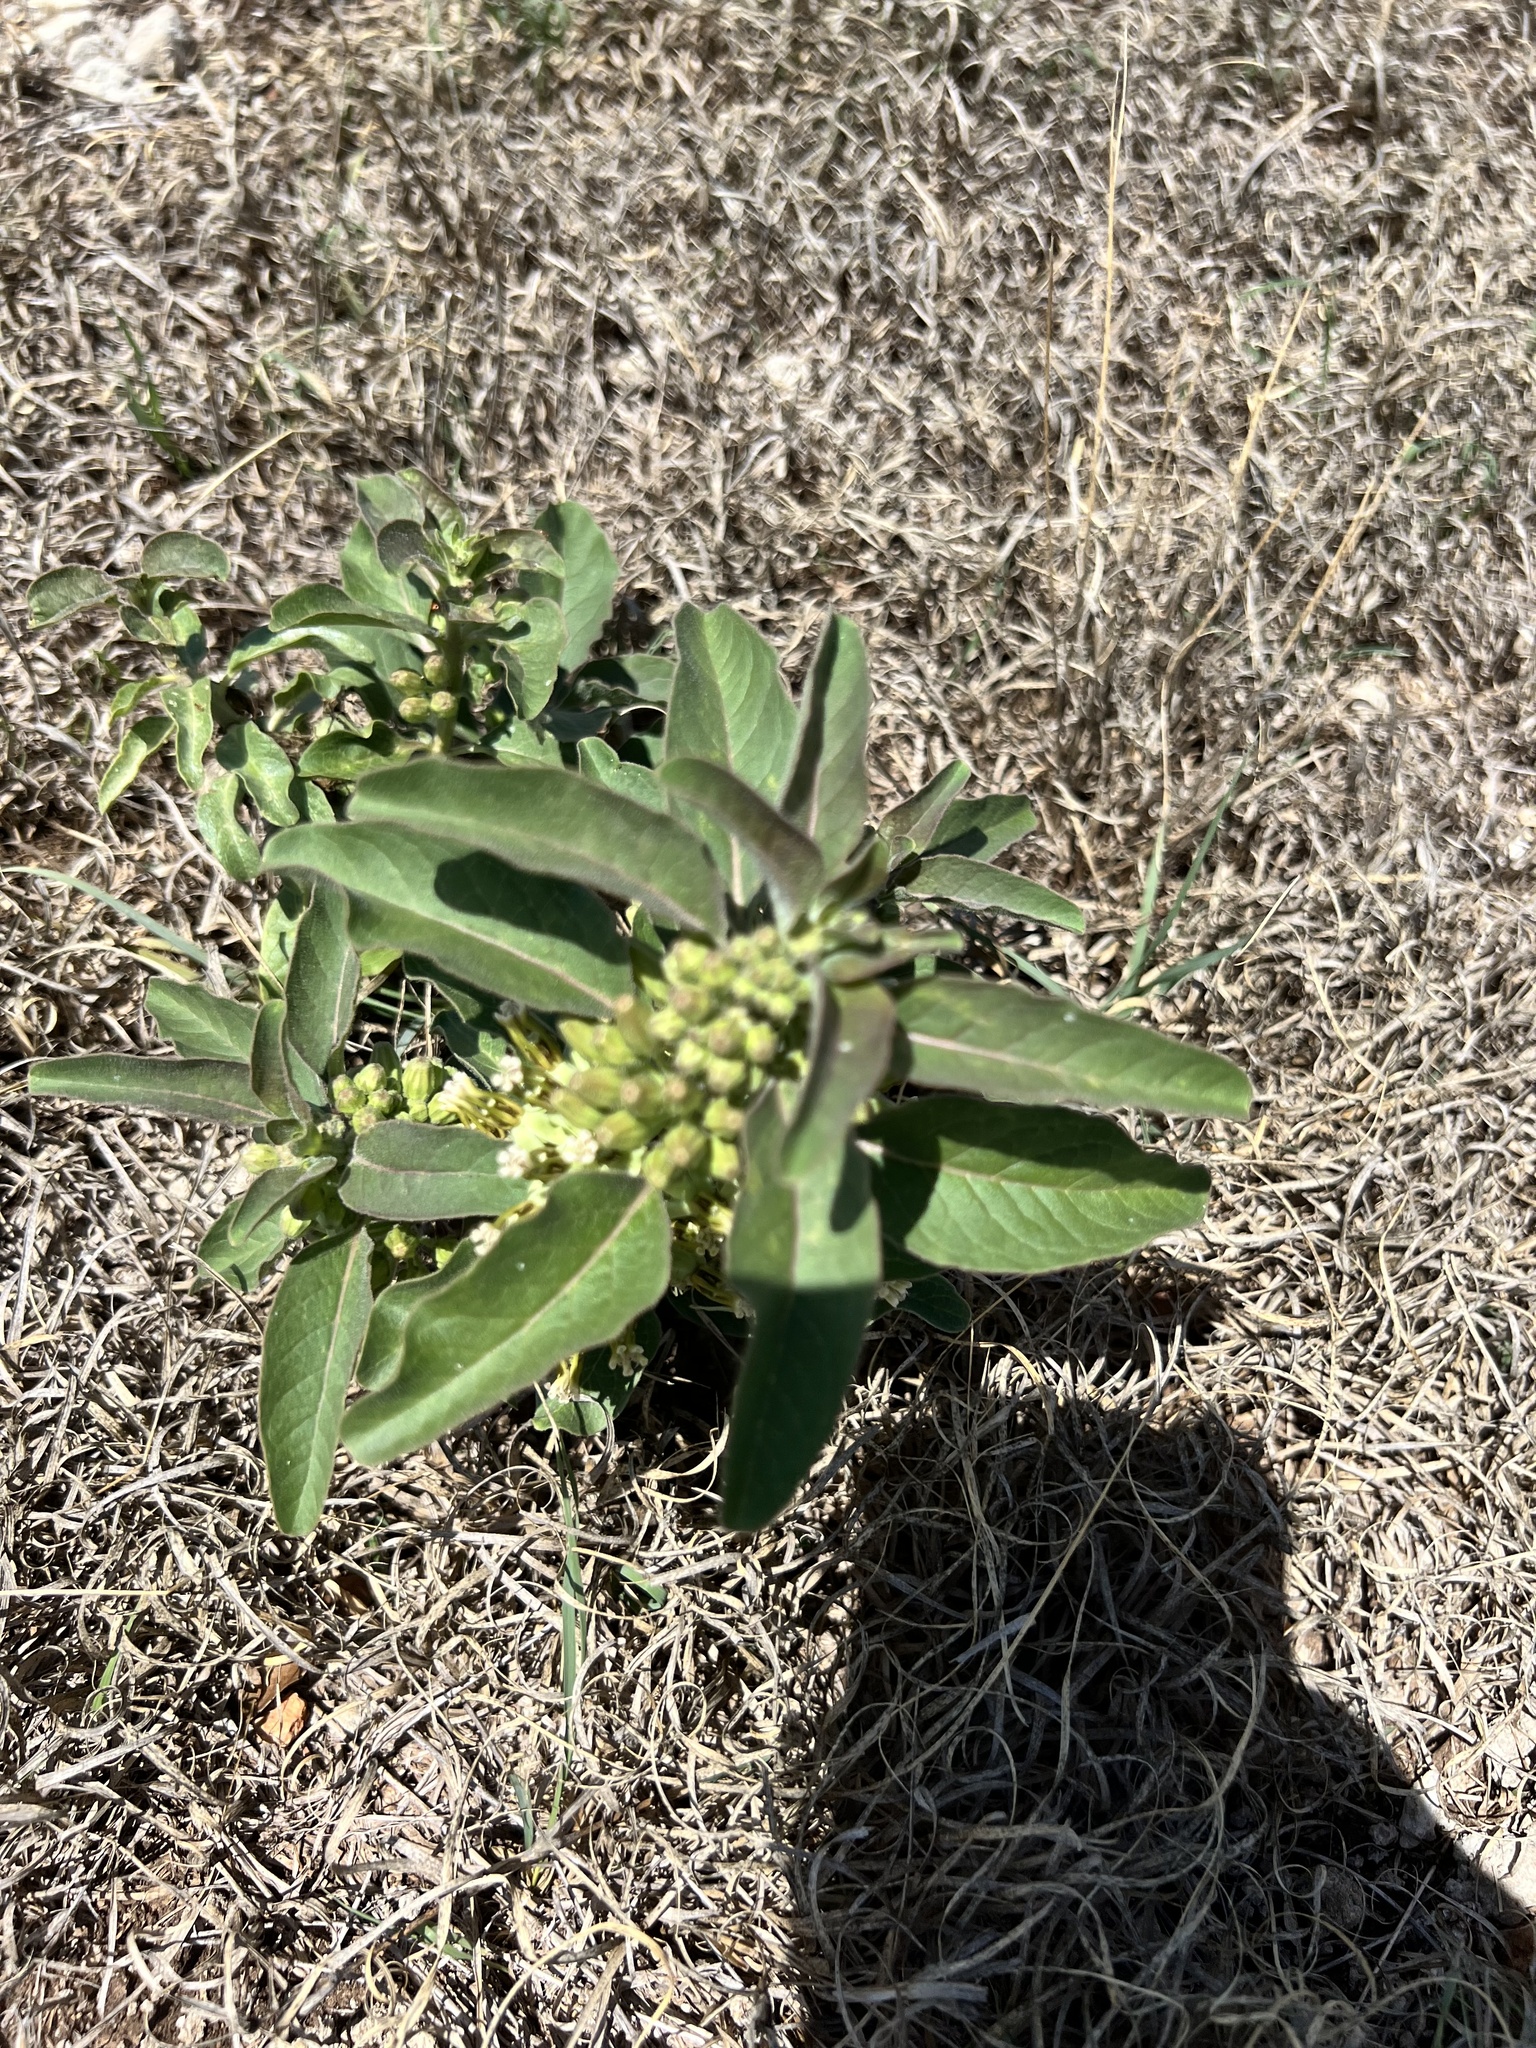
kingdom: Plantae
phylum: Tracheophyta
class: Magnoliopsida
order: Gentianales
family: Apocynaceae
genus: Asclepias
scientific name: Asclepias oenotheroides
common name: Zizotes milkweed
